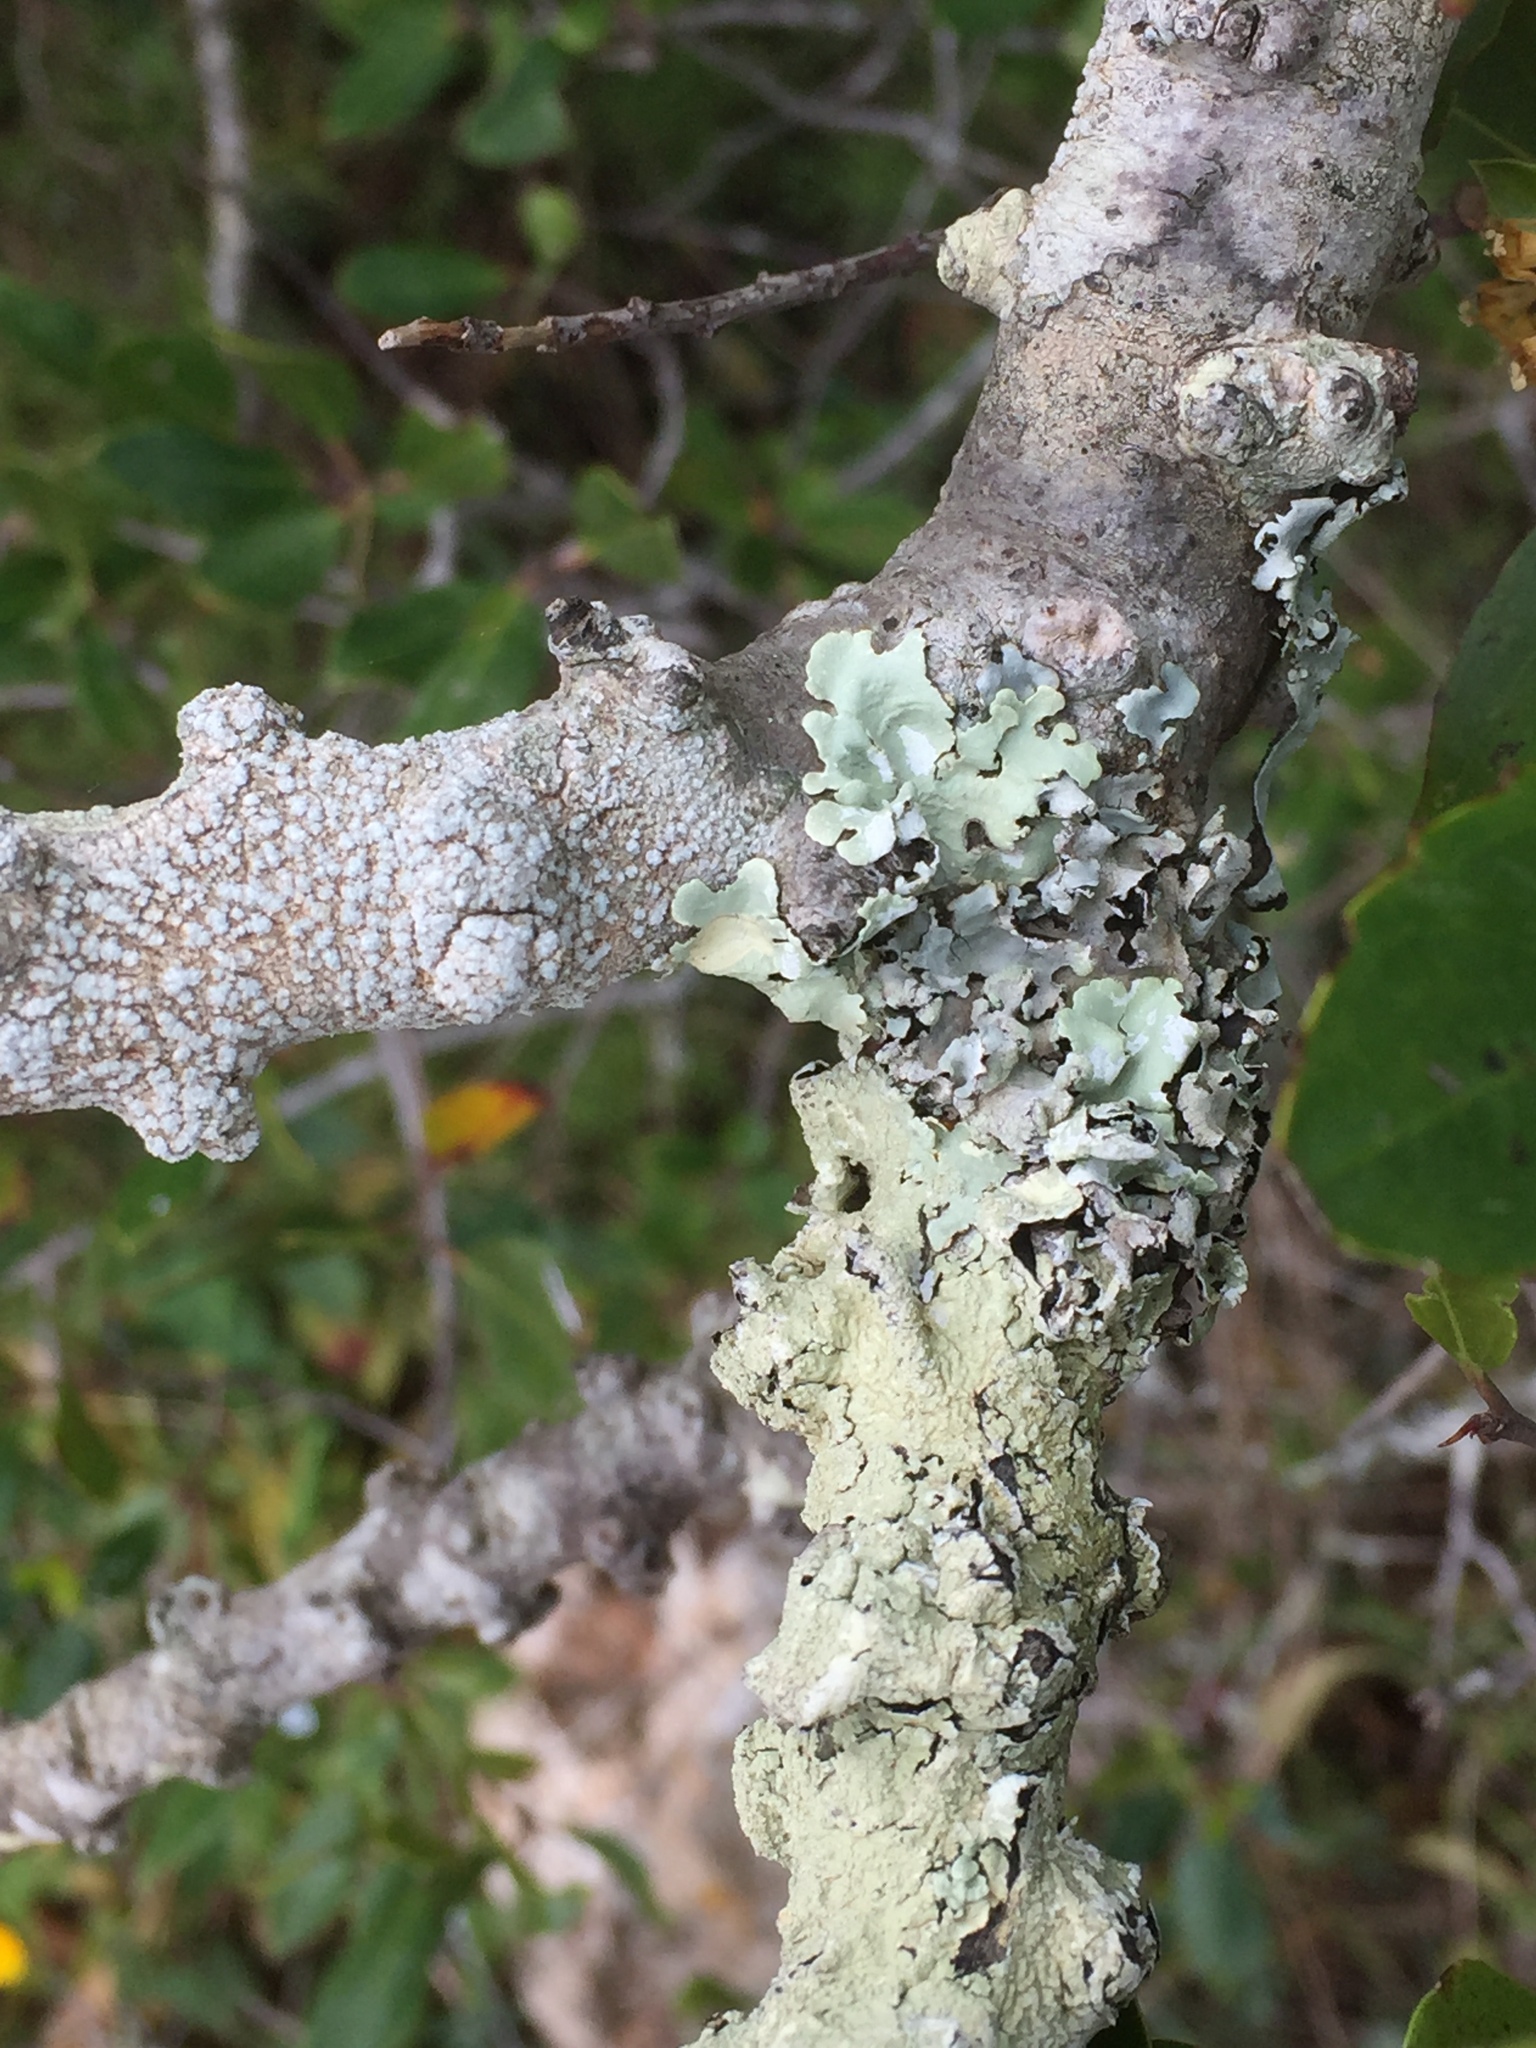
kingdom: Fungi
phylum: Ascomycota
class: Lecanoromycetes
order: Lecanorales
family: Parmeliaceae
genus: Parmotrema
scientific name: Parmotrema perlatum
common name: Black stone flower
